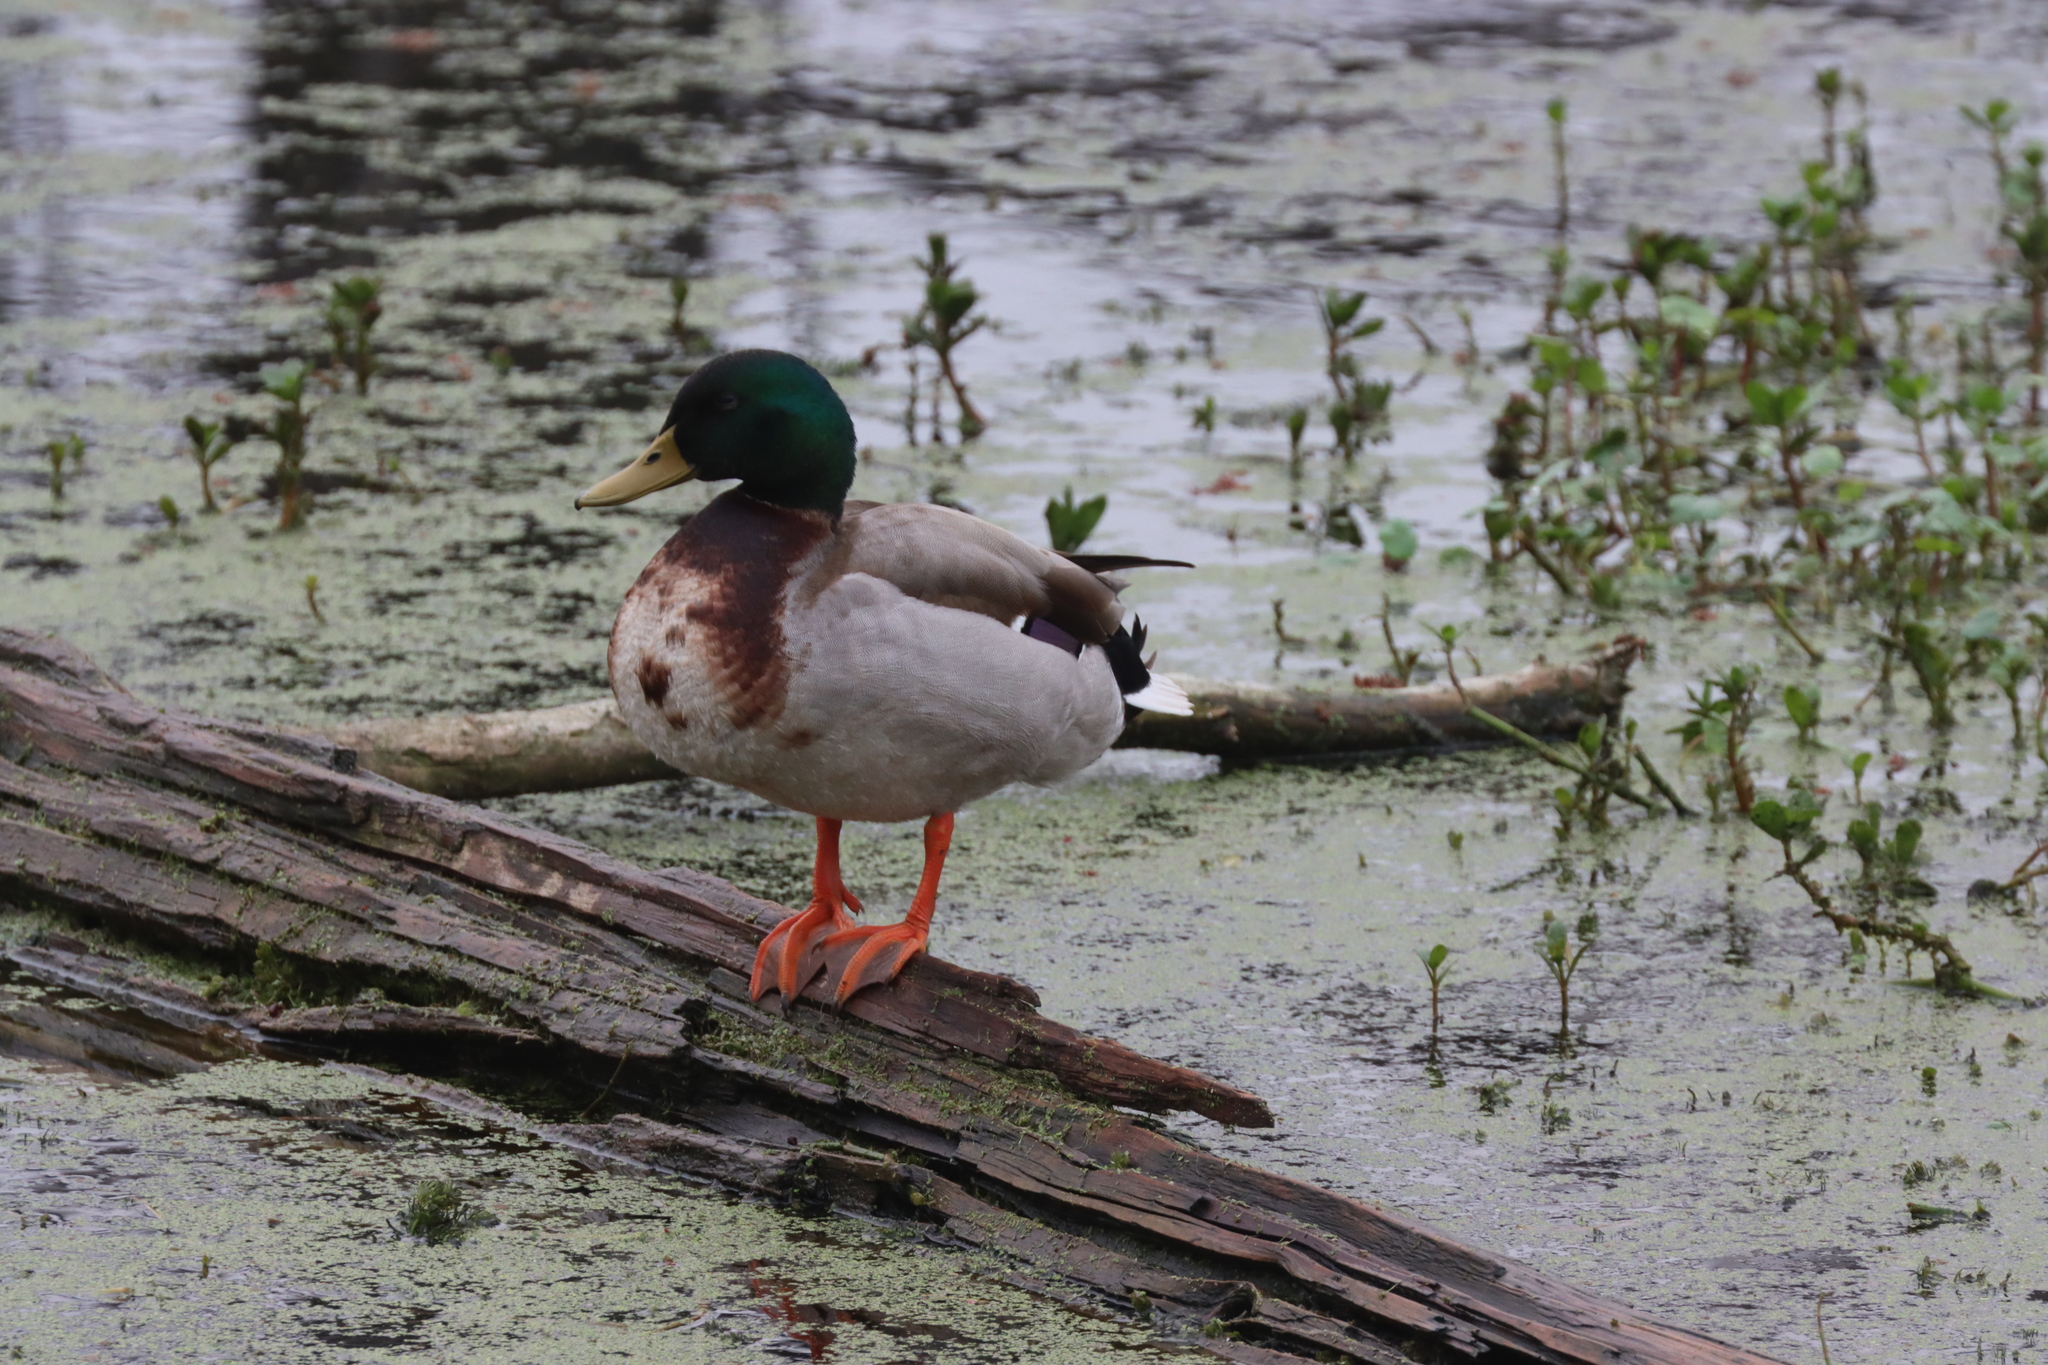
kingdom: Animalia
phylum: Chordata
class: Aves
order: Anseriformes
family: Anatidae
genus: Anas
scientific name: Anas platyrhynchos
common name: Mallard
